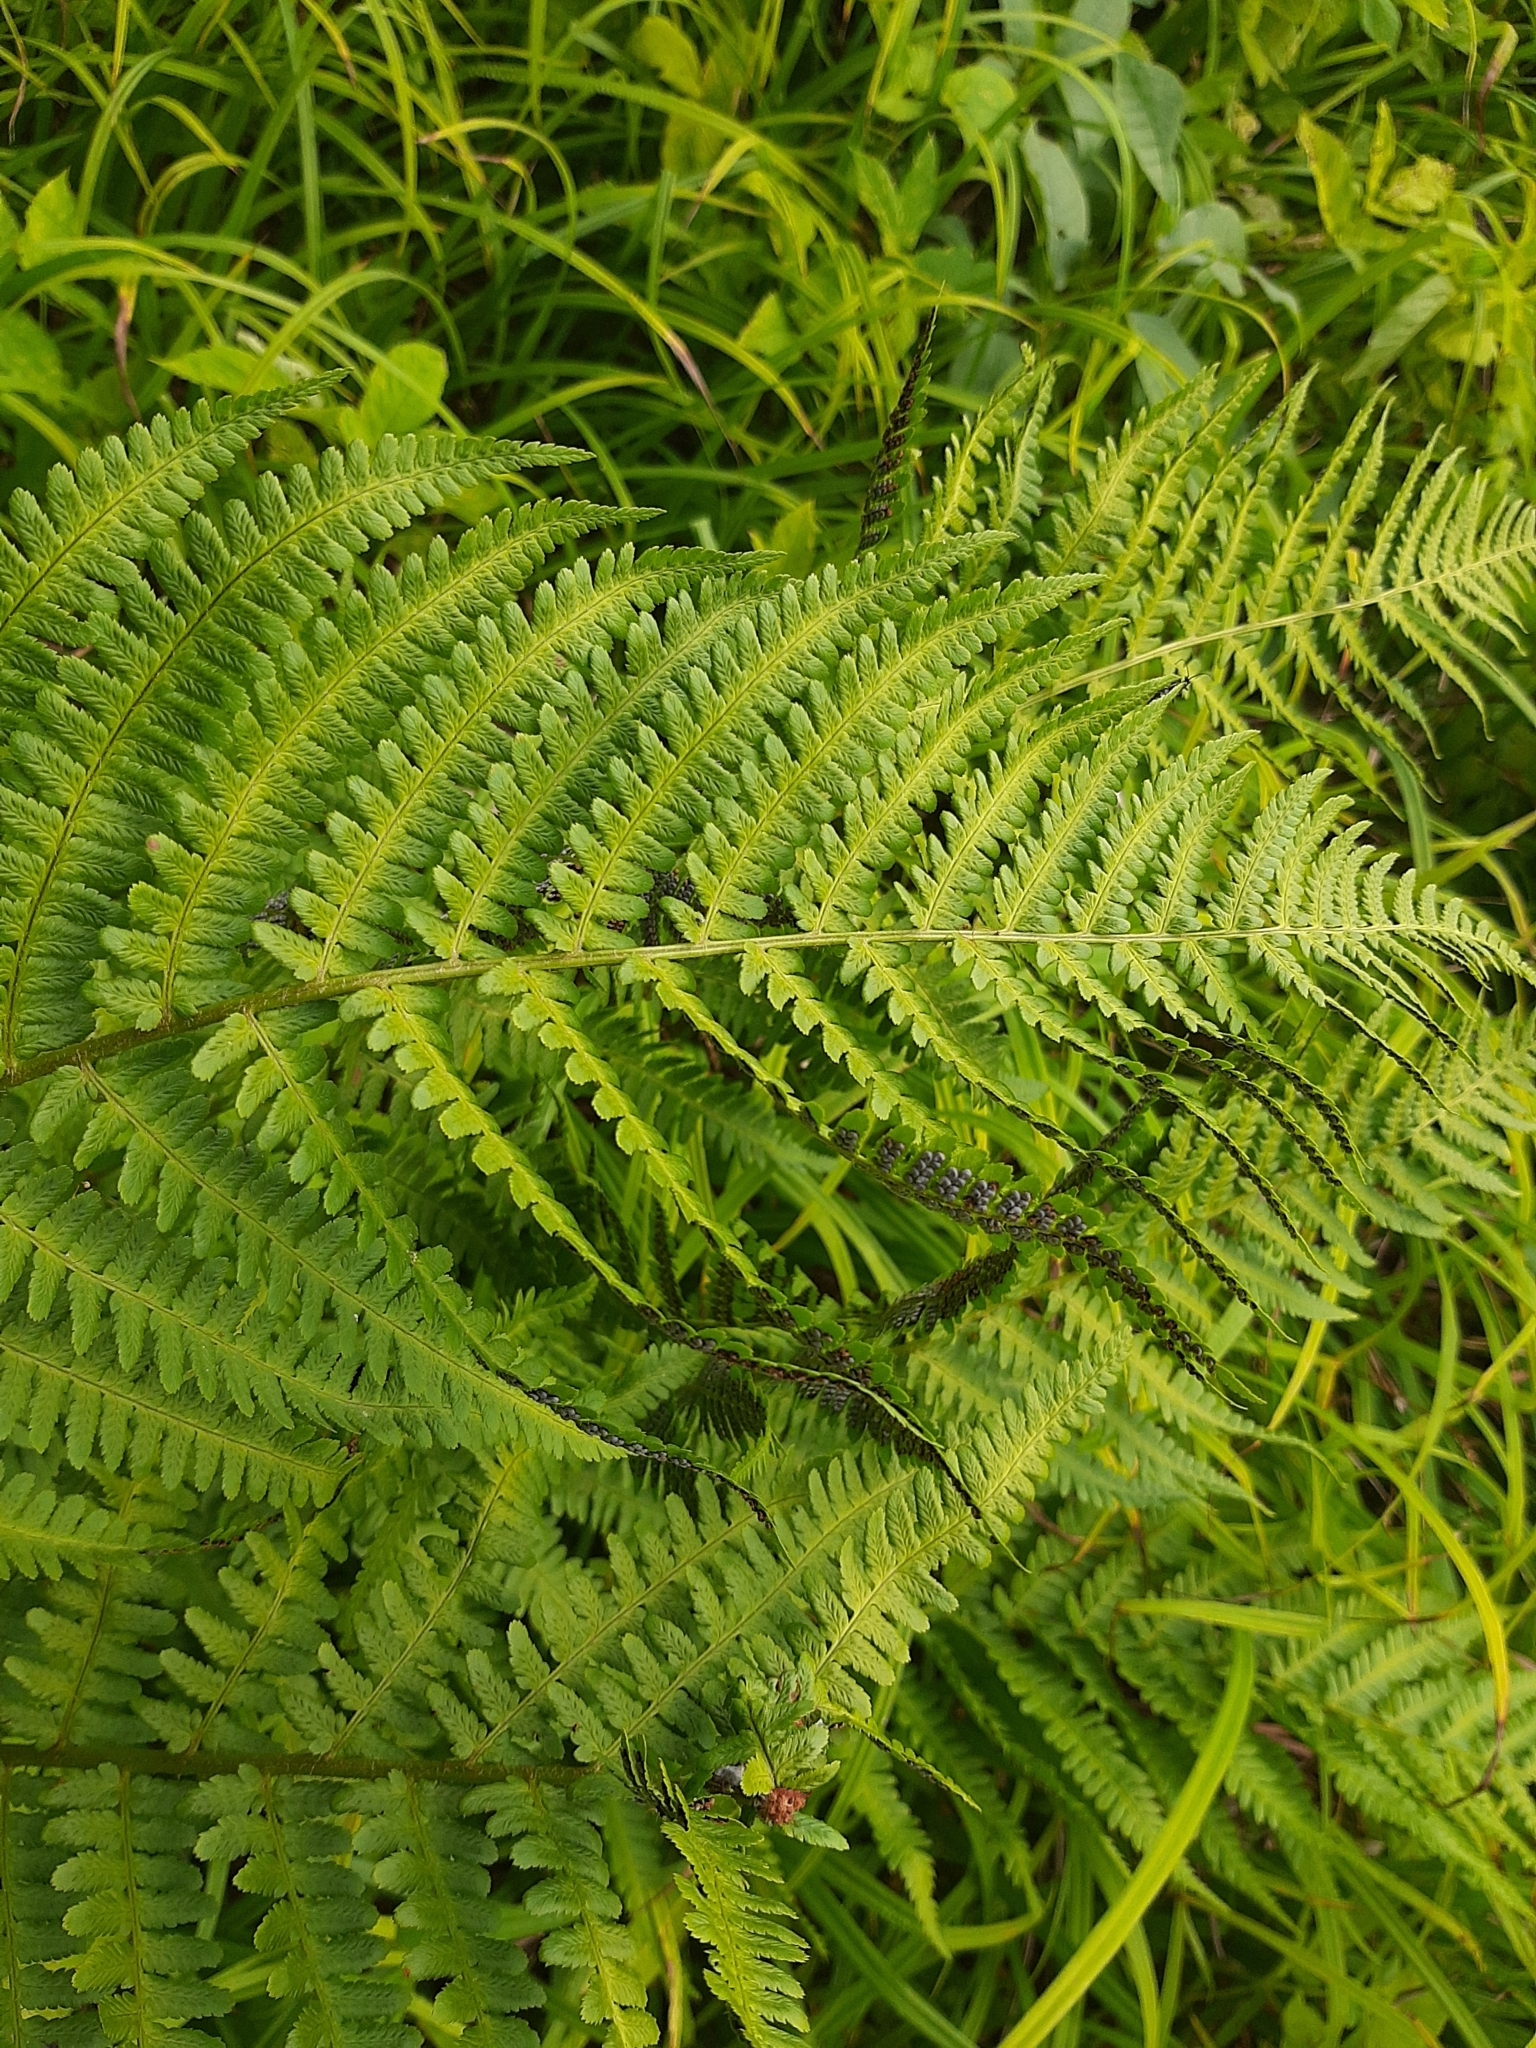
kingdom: Plantae
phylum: Tracheophyta
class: Polypodiopsida
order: Polypodiales
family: Dryopteridaceae
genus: Dryopteris
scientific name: Dryopteris filix-mas
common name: Male fern
